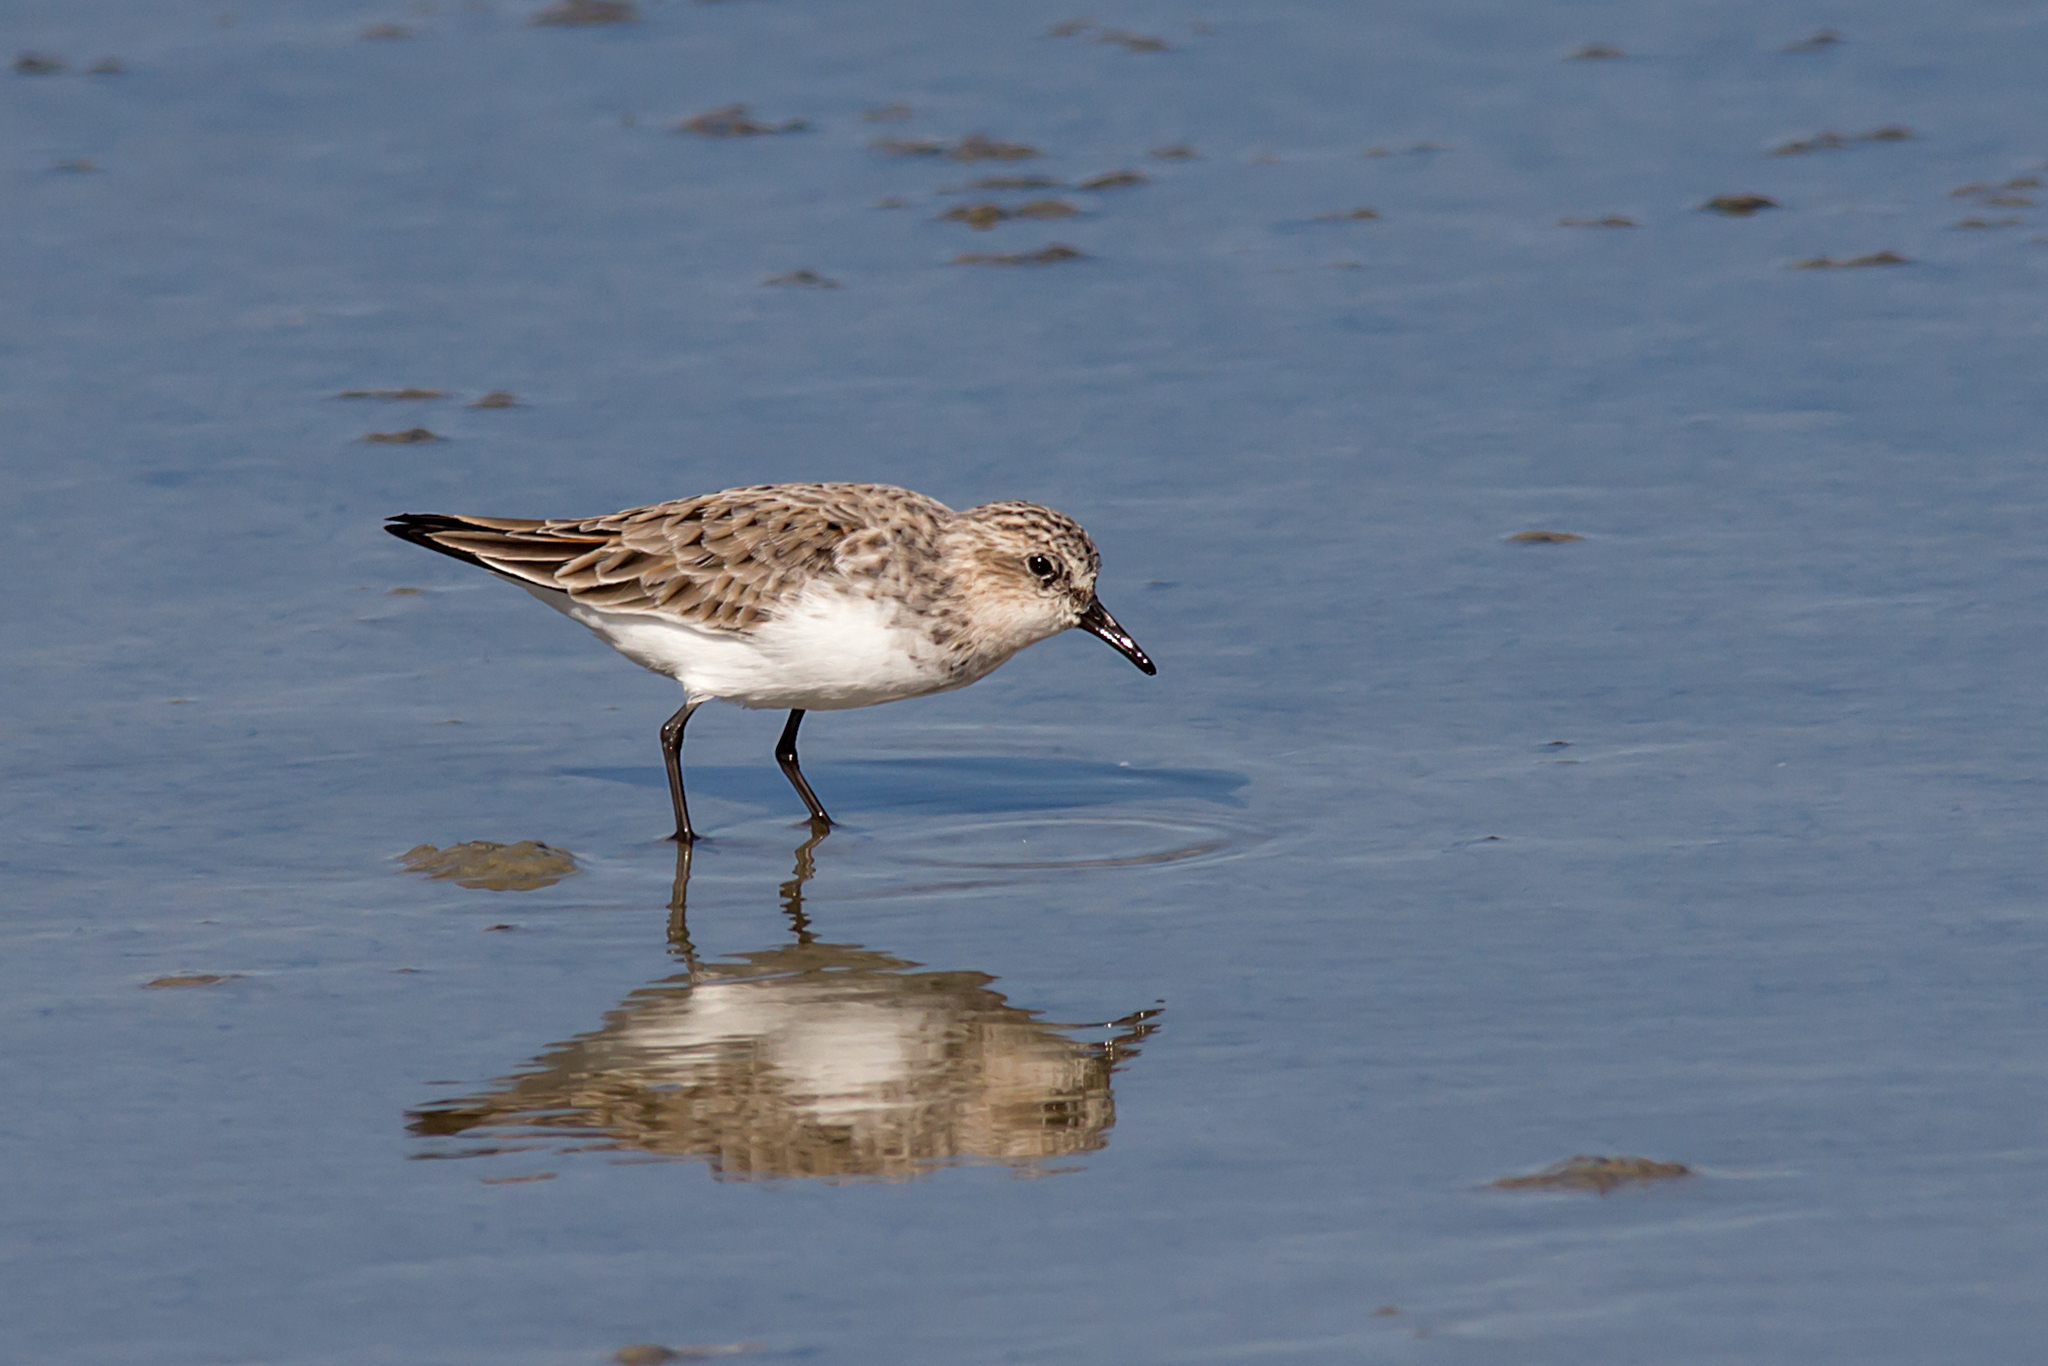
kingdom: Animalia
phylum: Chordata
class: Aves
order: Charadriiformes
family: Scolopacidae
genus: Calidris
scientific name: Calidris ruficollis
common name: Red-necked stint
